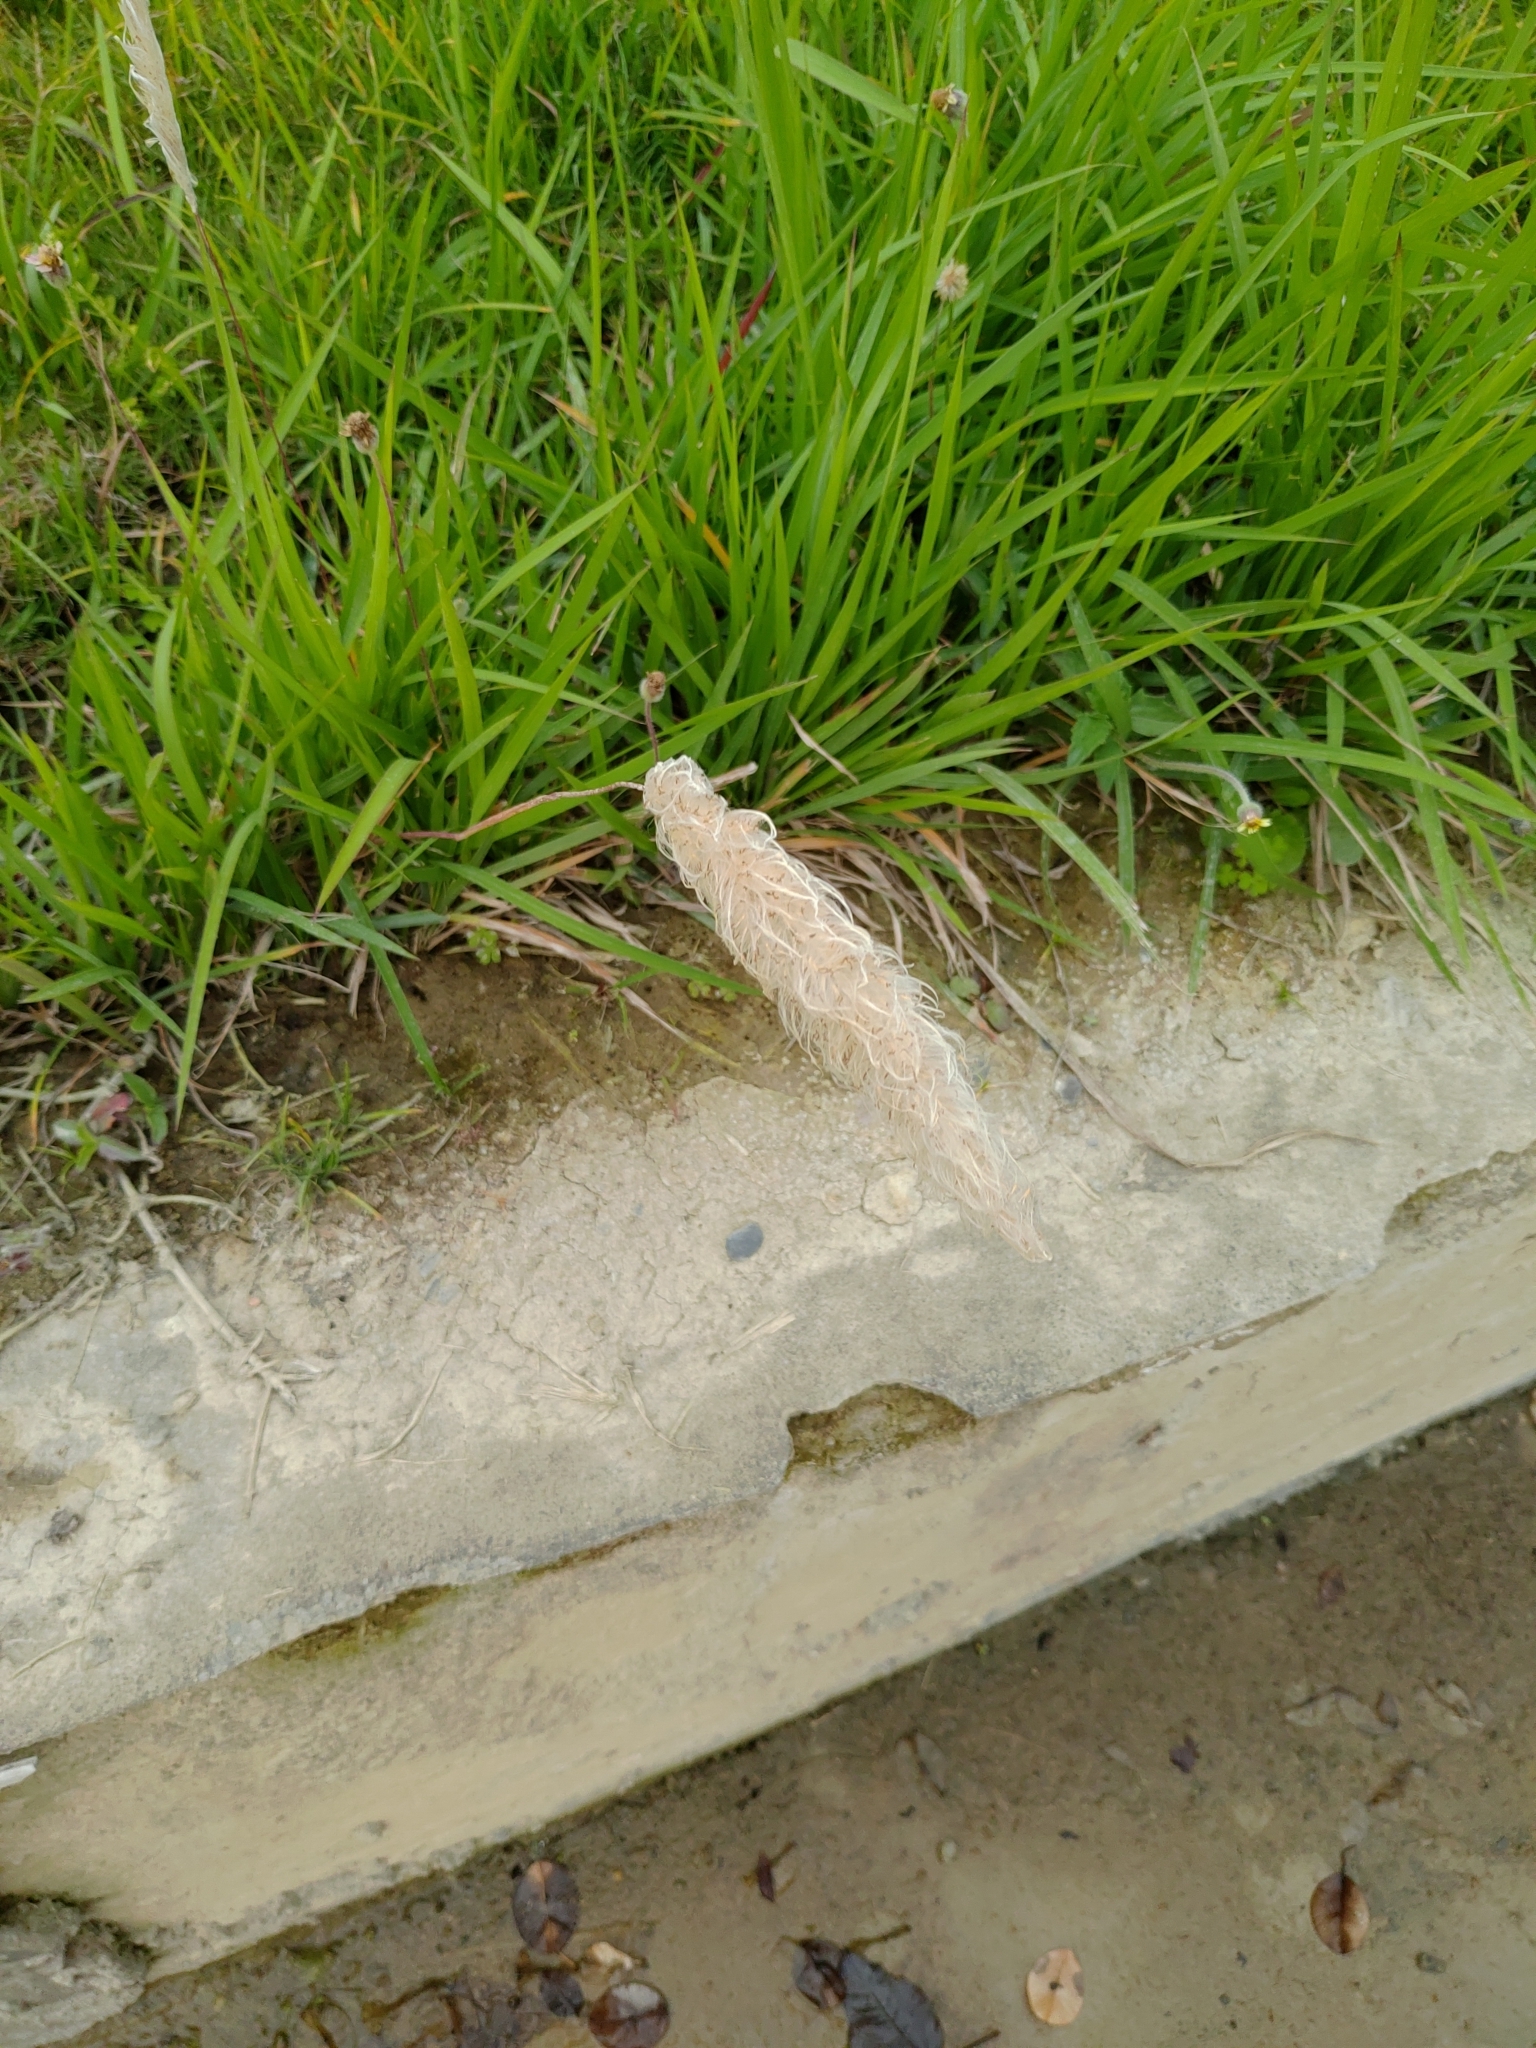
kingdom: Plantae
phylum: Tracheophyta
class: Liliopsida
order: Poales
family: Poaceae
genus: Imperata
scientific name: Imperata cylindrica
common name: Cogongrass
